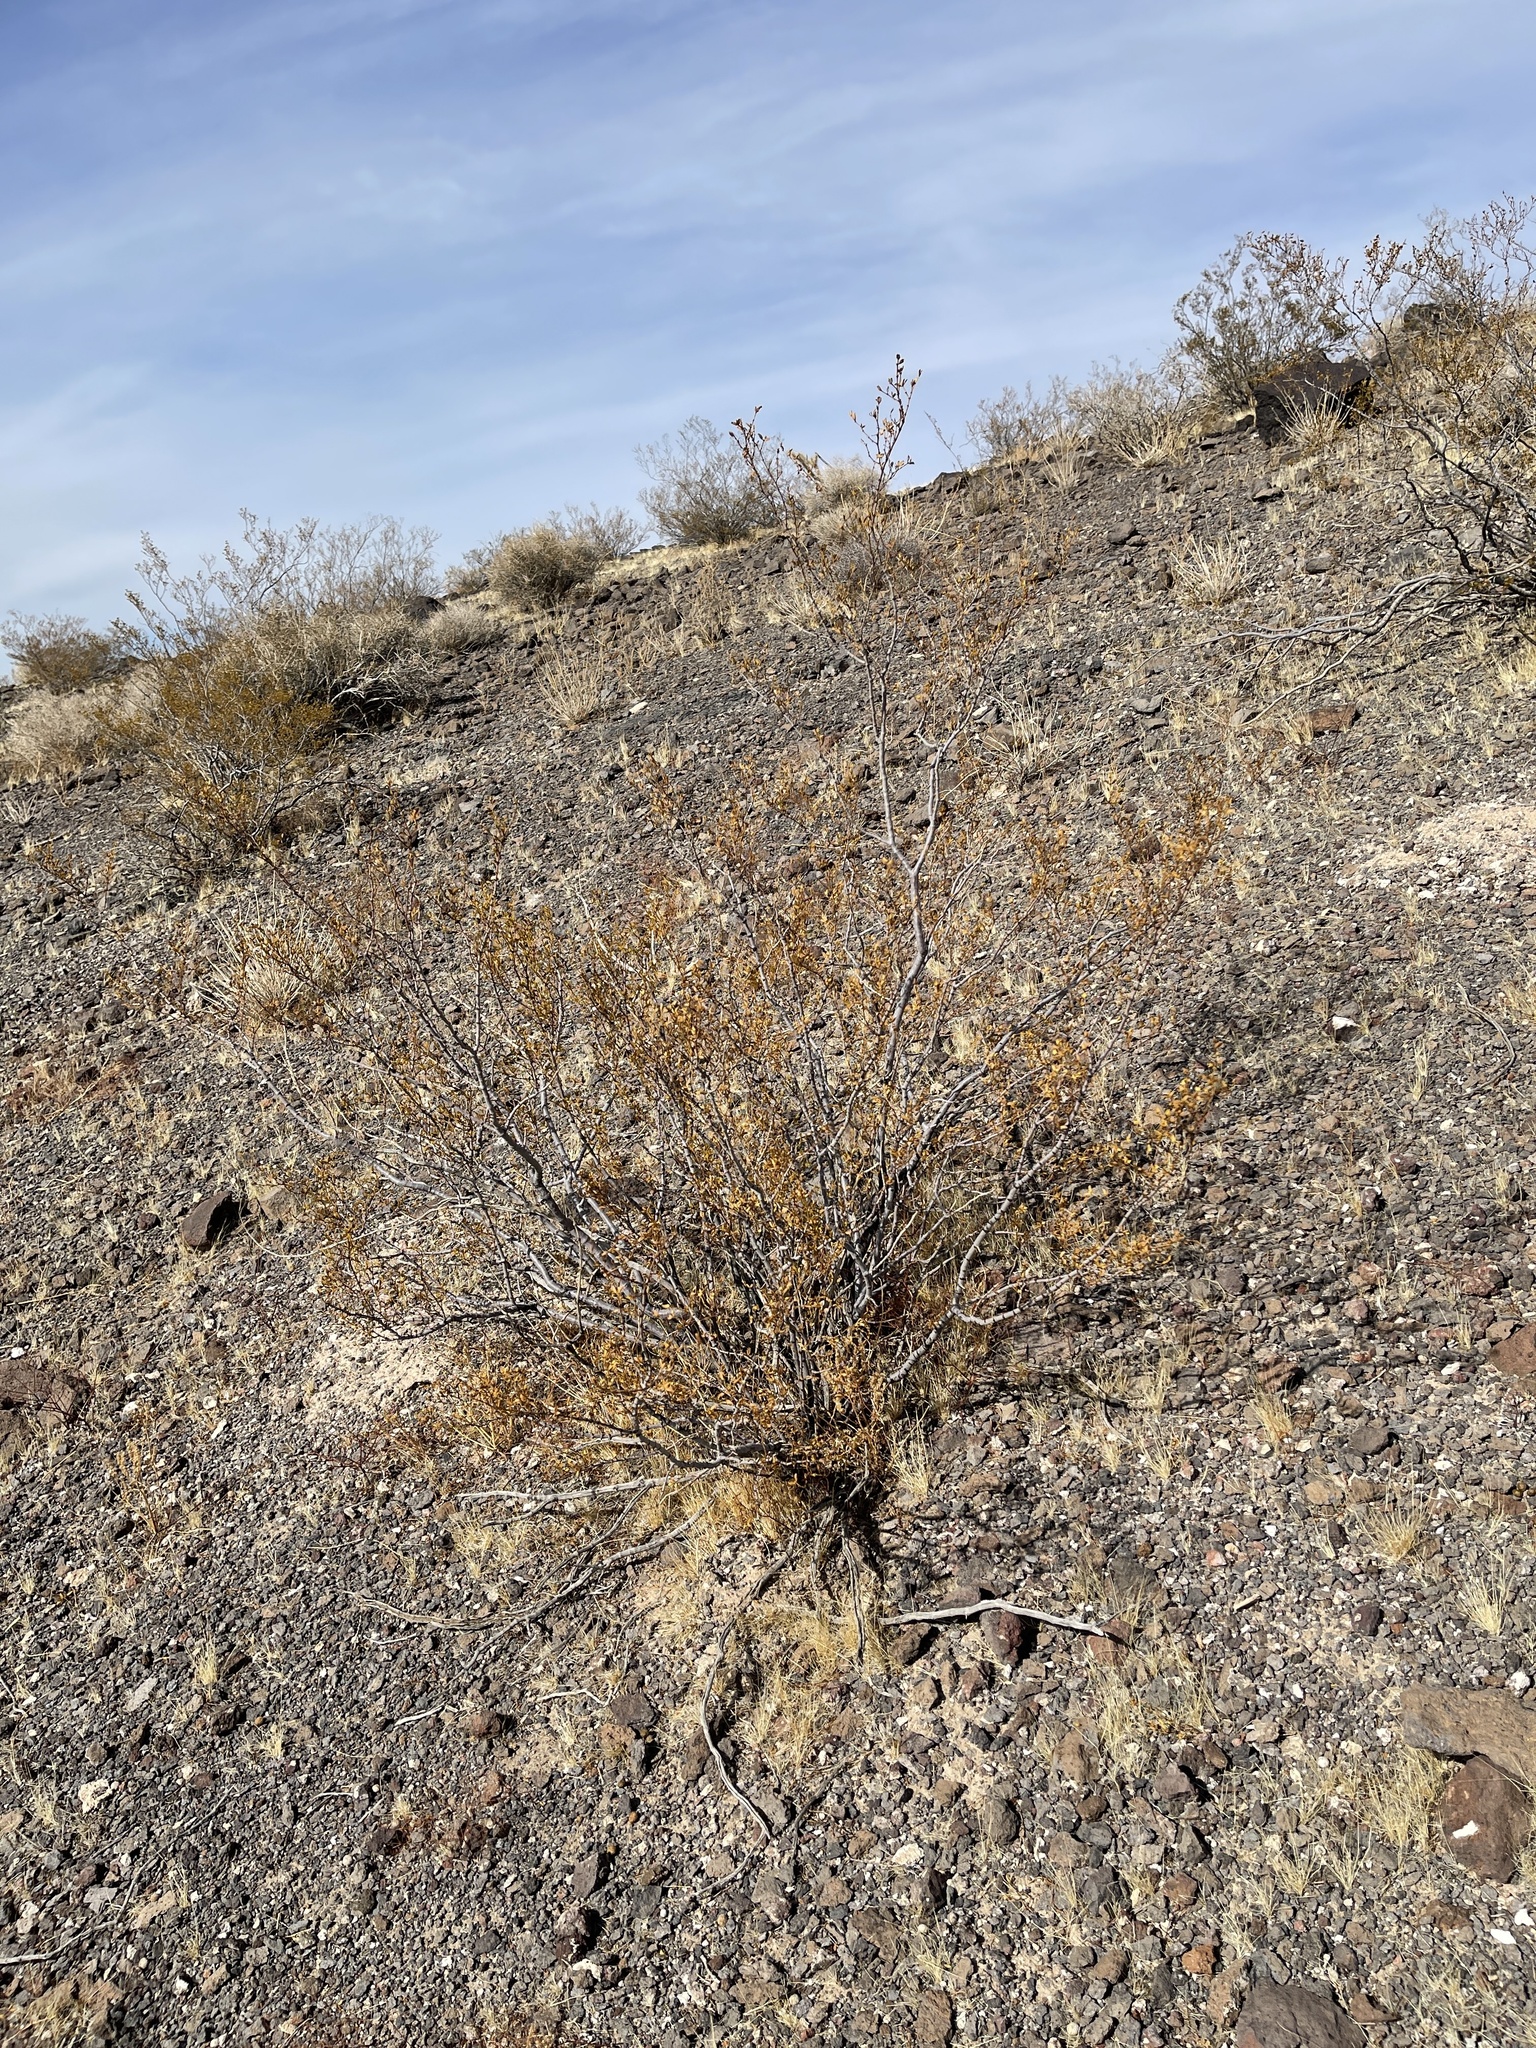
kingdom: Plantae
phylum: Tracheophyta
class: Magnoliopsida
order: Zygophyllales
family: Zygophyllaceae
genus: Larrea
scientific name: Larrea tridentata
